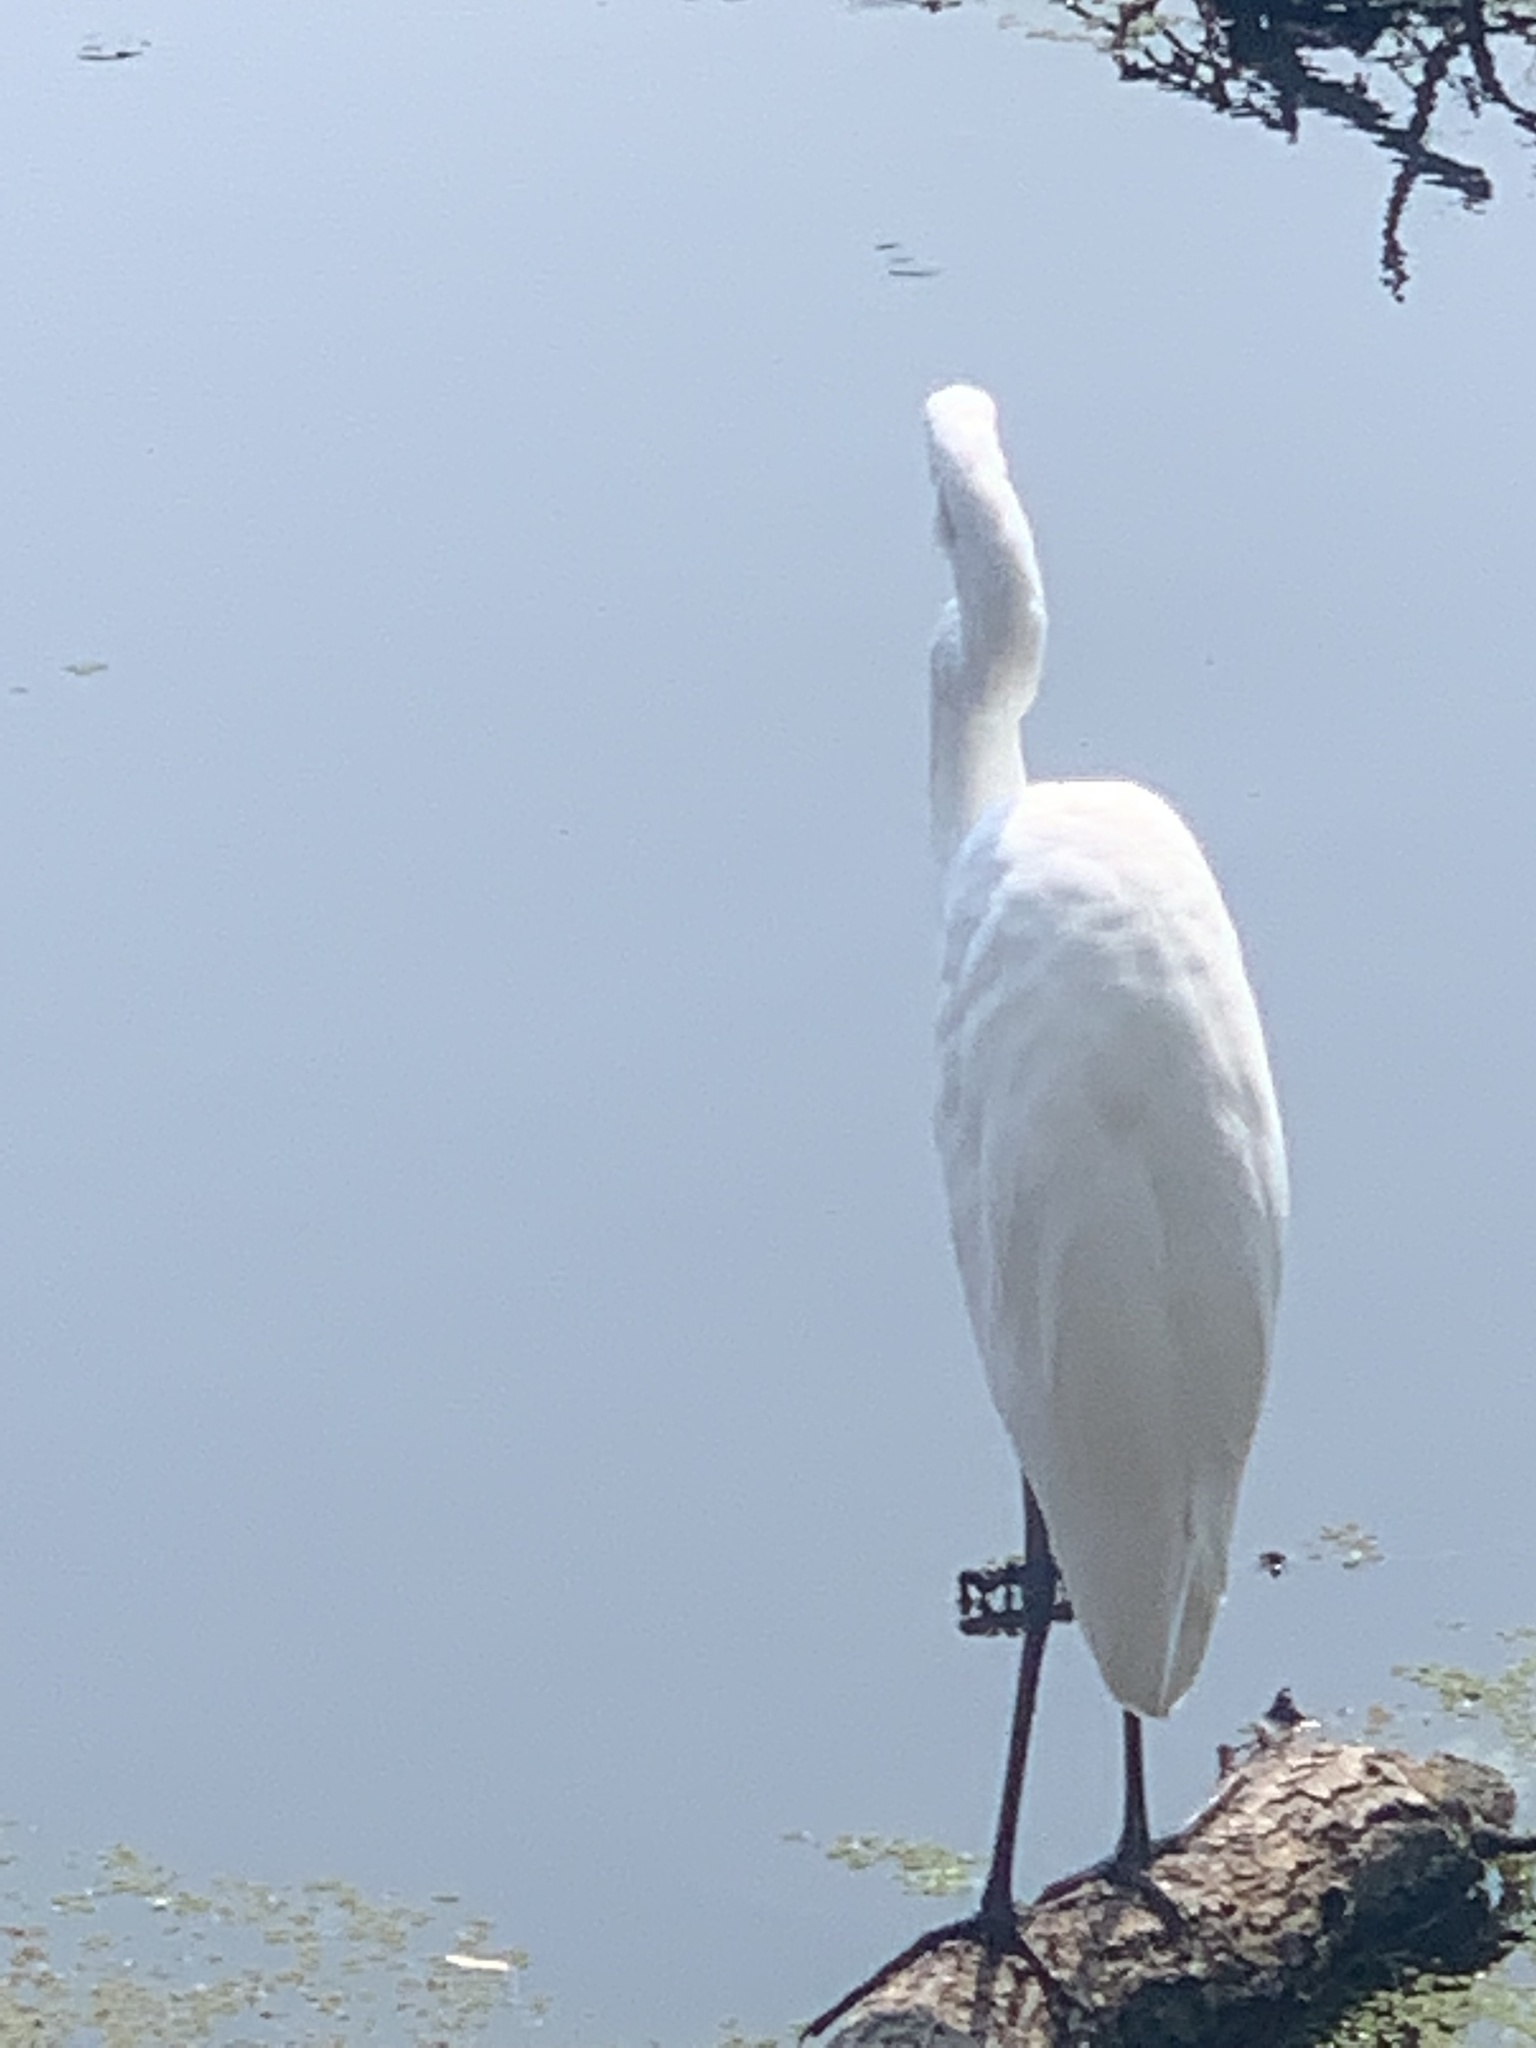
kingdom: Animalia
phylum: Chordata
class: Aves
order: Pelecaniformes
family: Ardeidae
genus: Ardea
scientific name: Ardea alba
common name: Great egret
